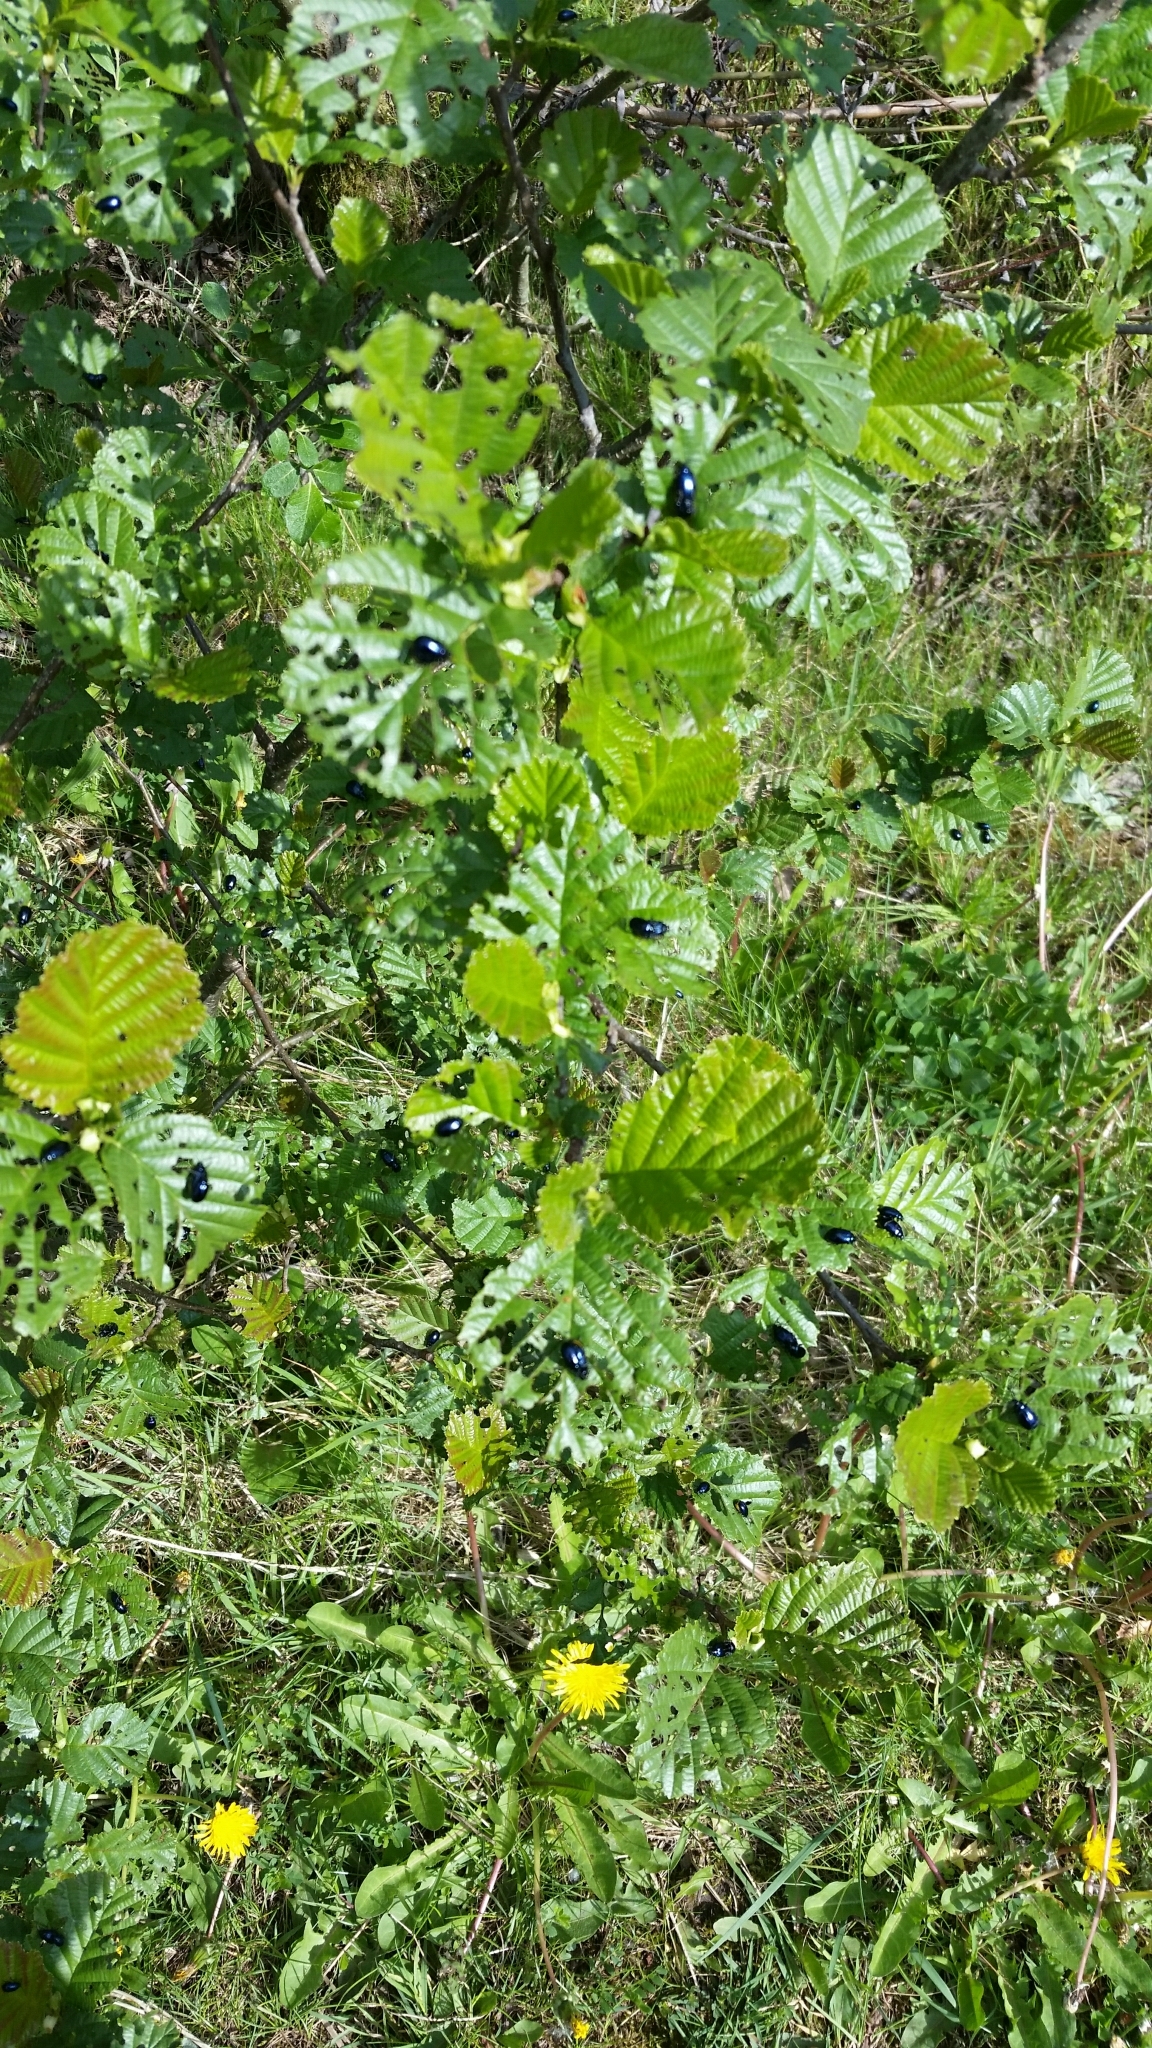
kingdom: Animalia
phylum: Arthropoda
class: Insecta
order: Coleoptera
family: Chrysomelidae
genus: Agelastica
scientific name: Agelastica alni
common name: Alder leaf beetle
